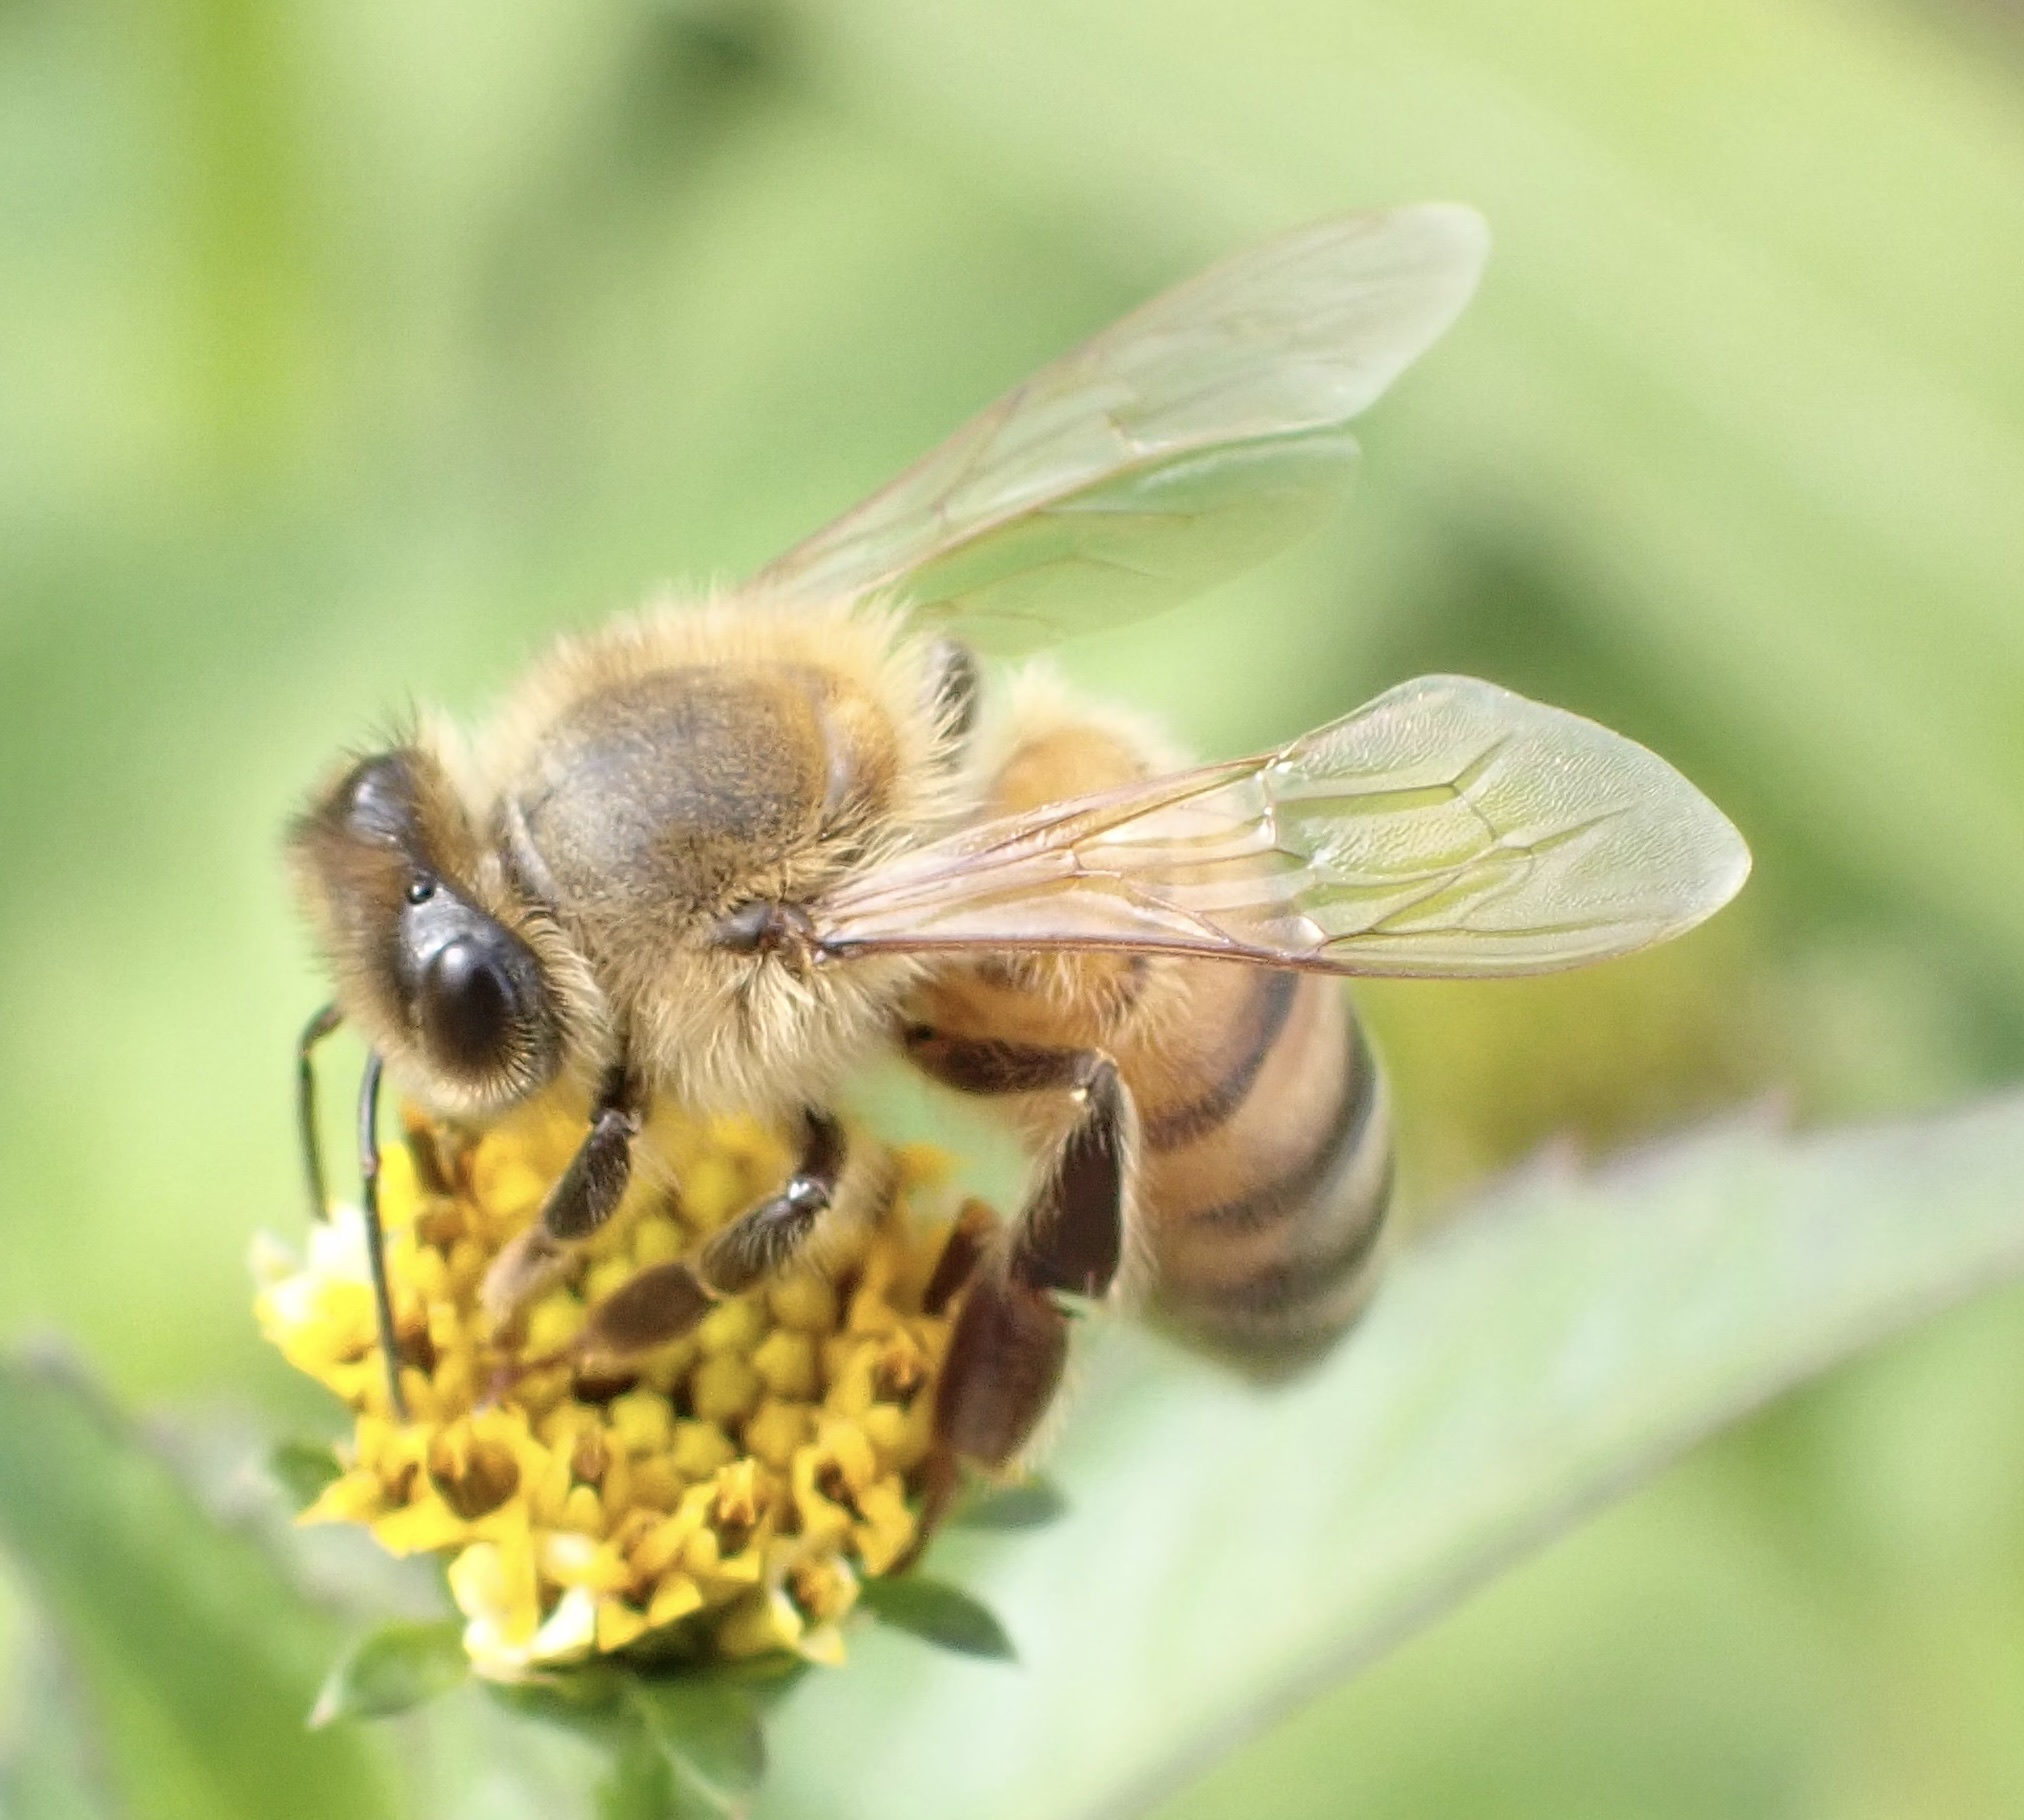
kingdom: Animalia
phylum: Arthropoda
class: Insecta
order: Hymenoptera
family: Apidae
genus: Apis
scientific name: Apis mellifera
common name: Honey bee
